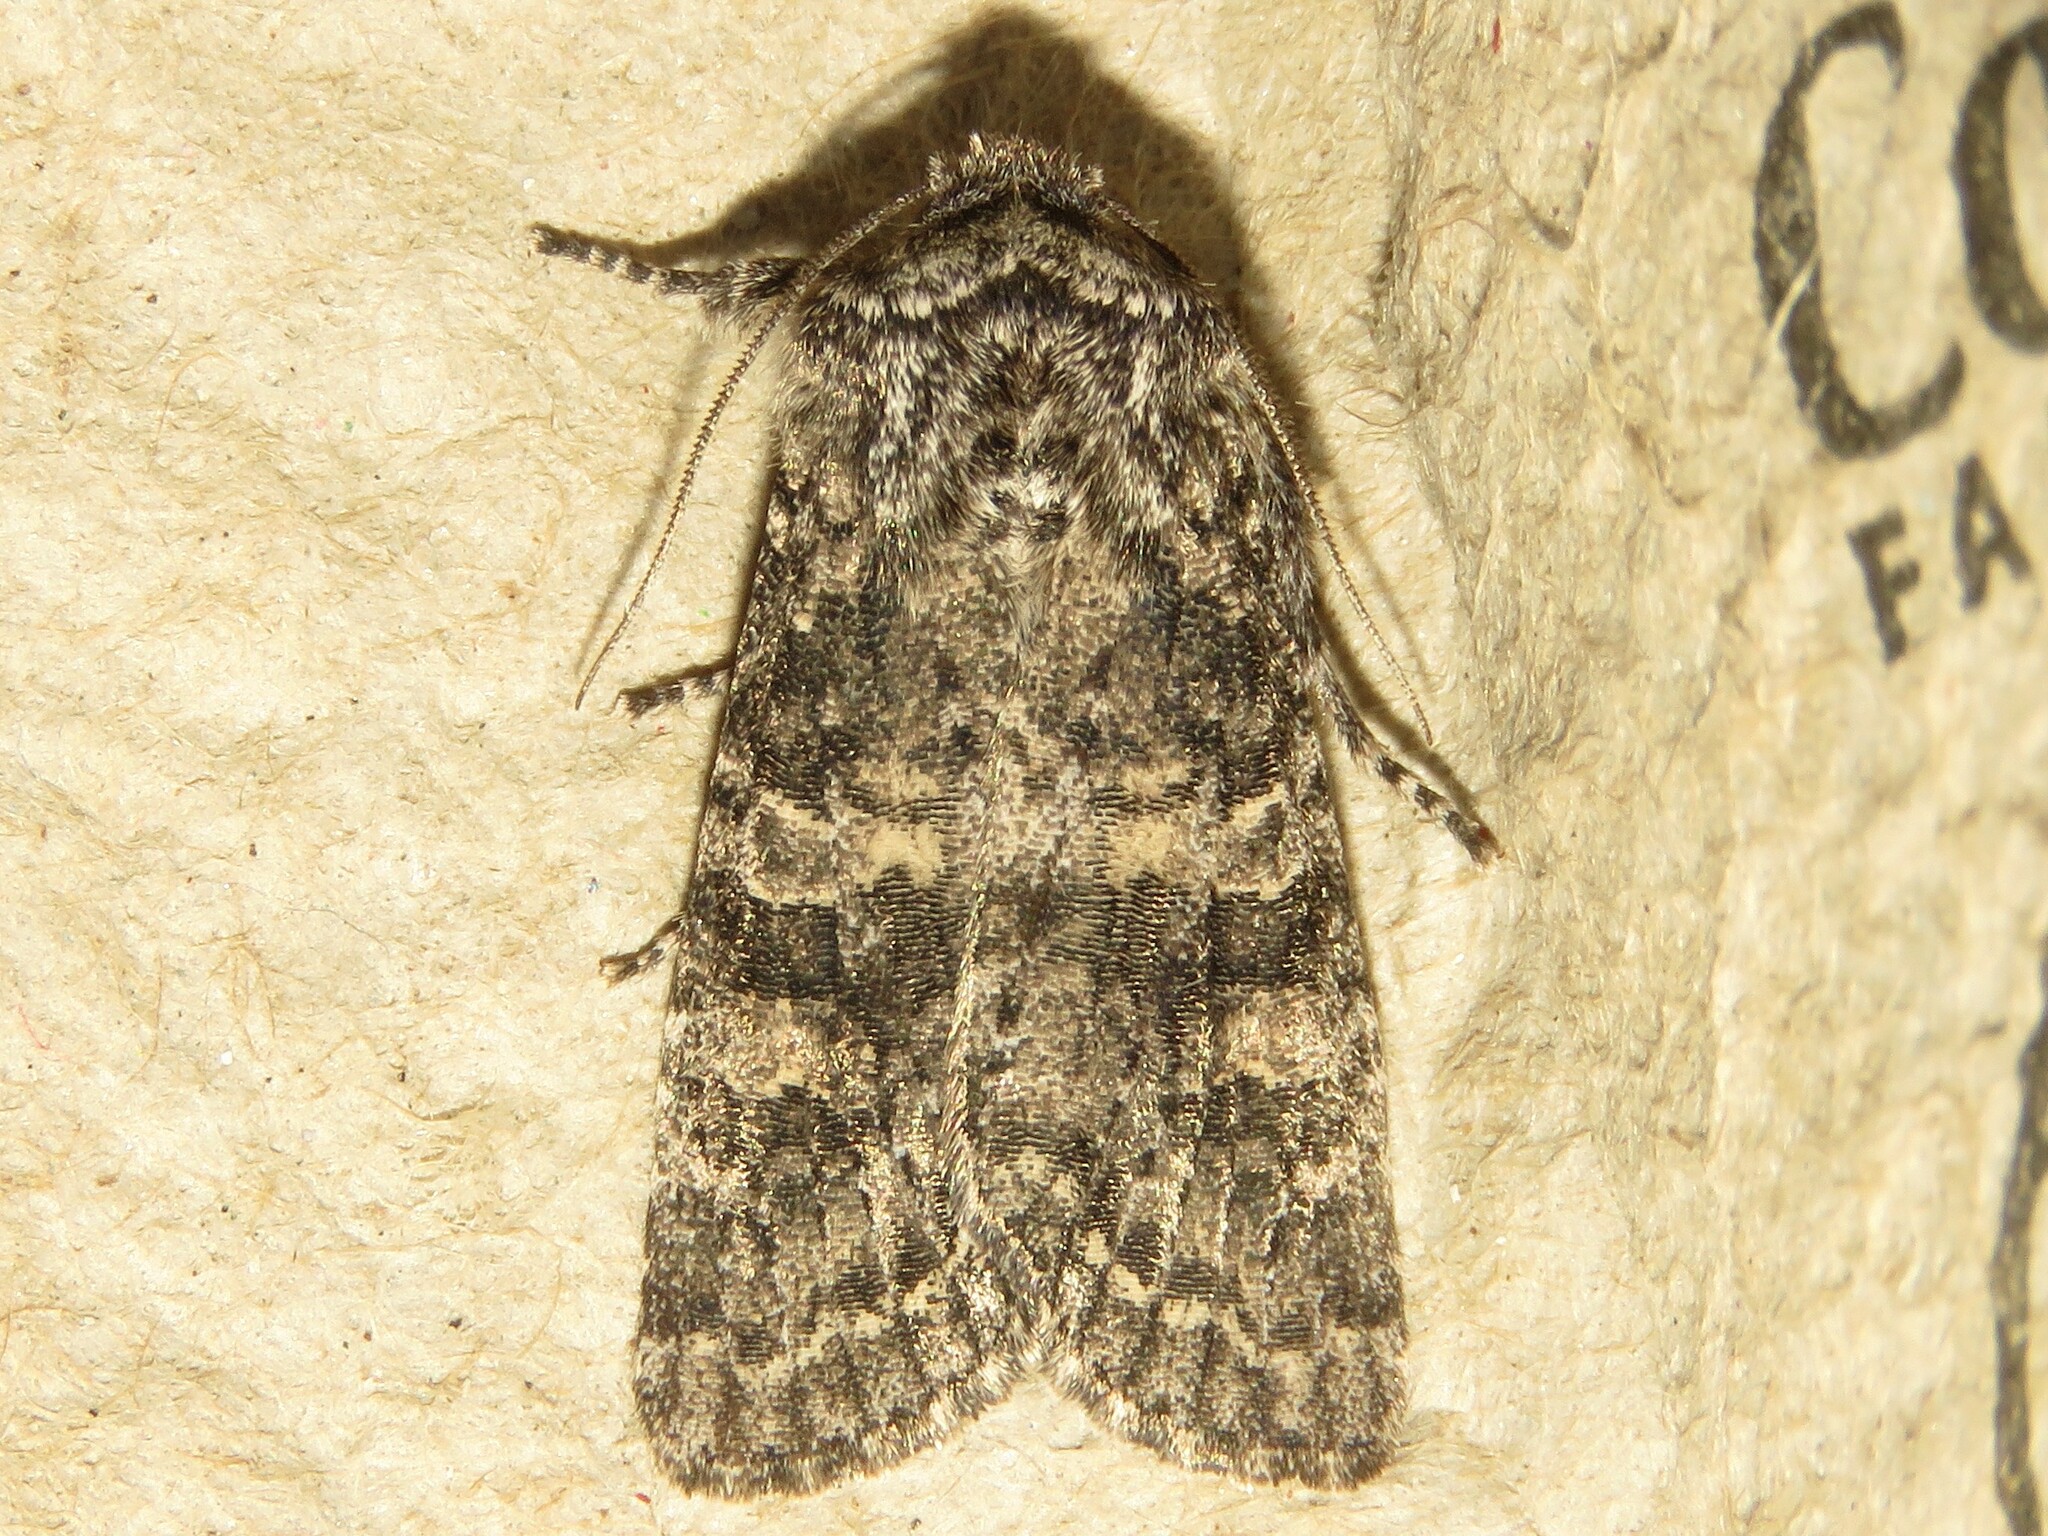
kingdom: Animalia
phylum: Arthropoda
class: Insecta
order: Lepidoptera
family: Noctuidae
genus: Egira
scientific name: Egira dolosa
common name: Lined black aspen cat.
